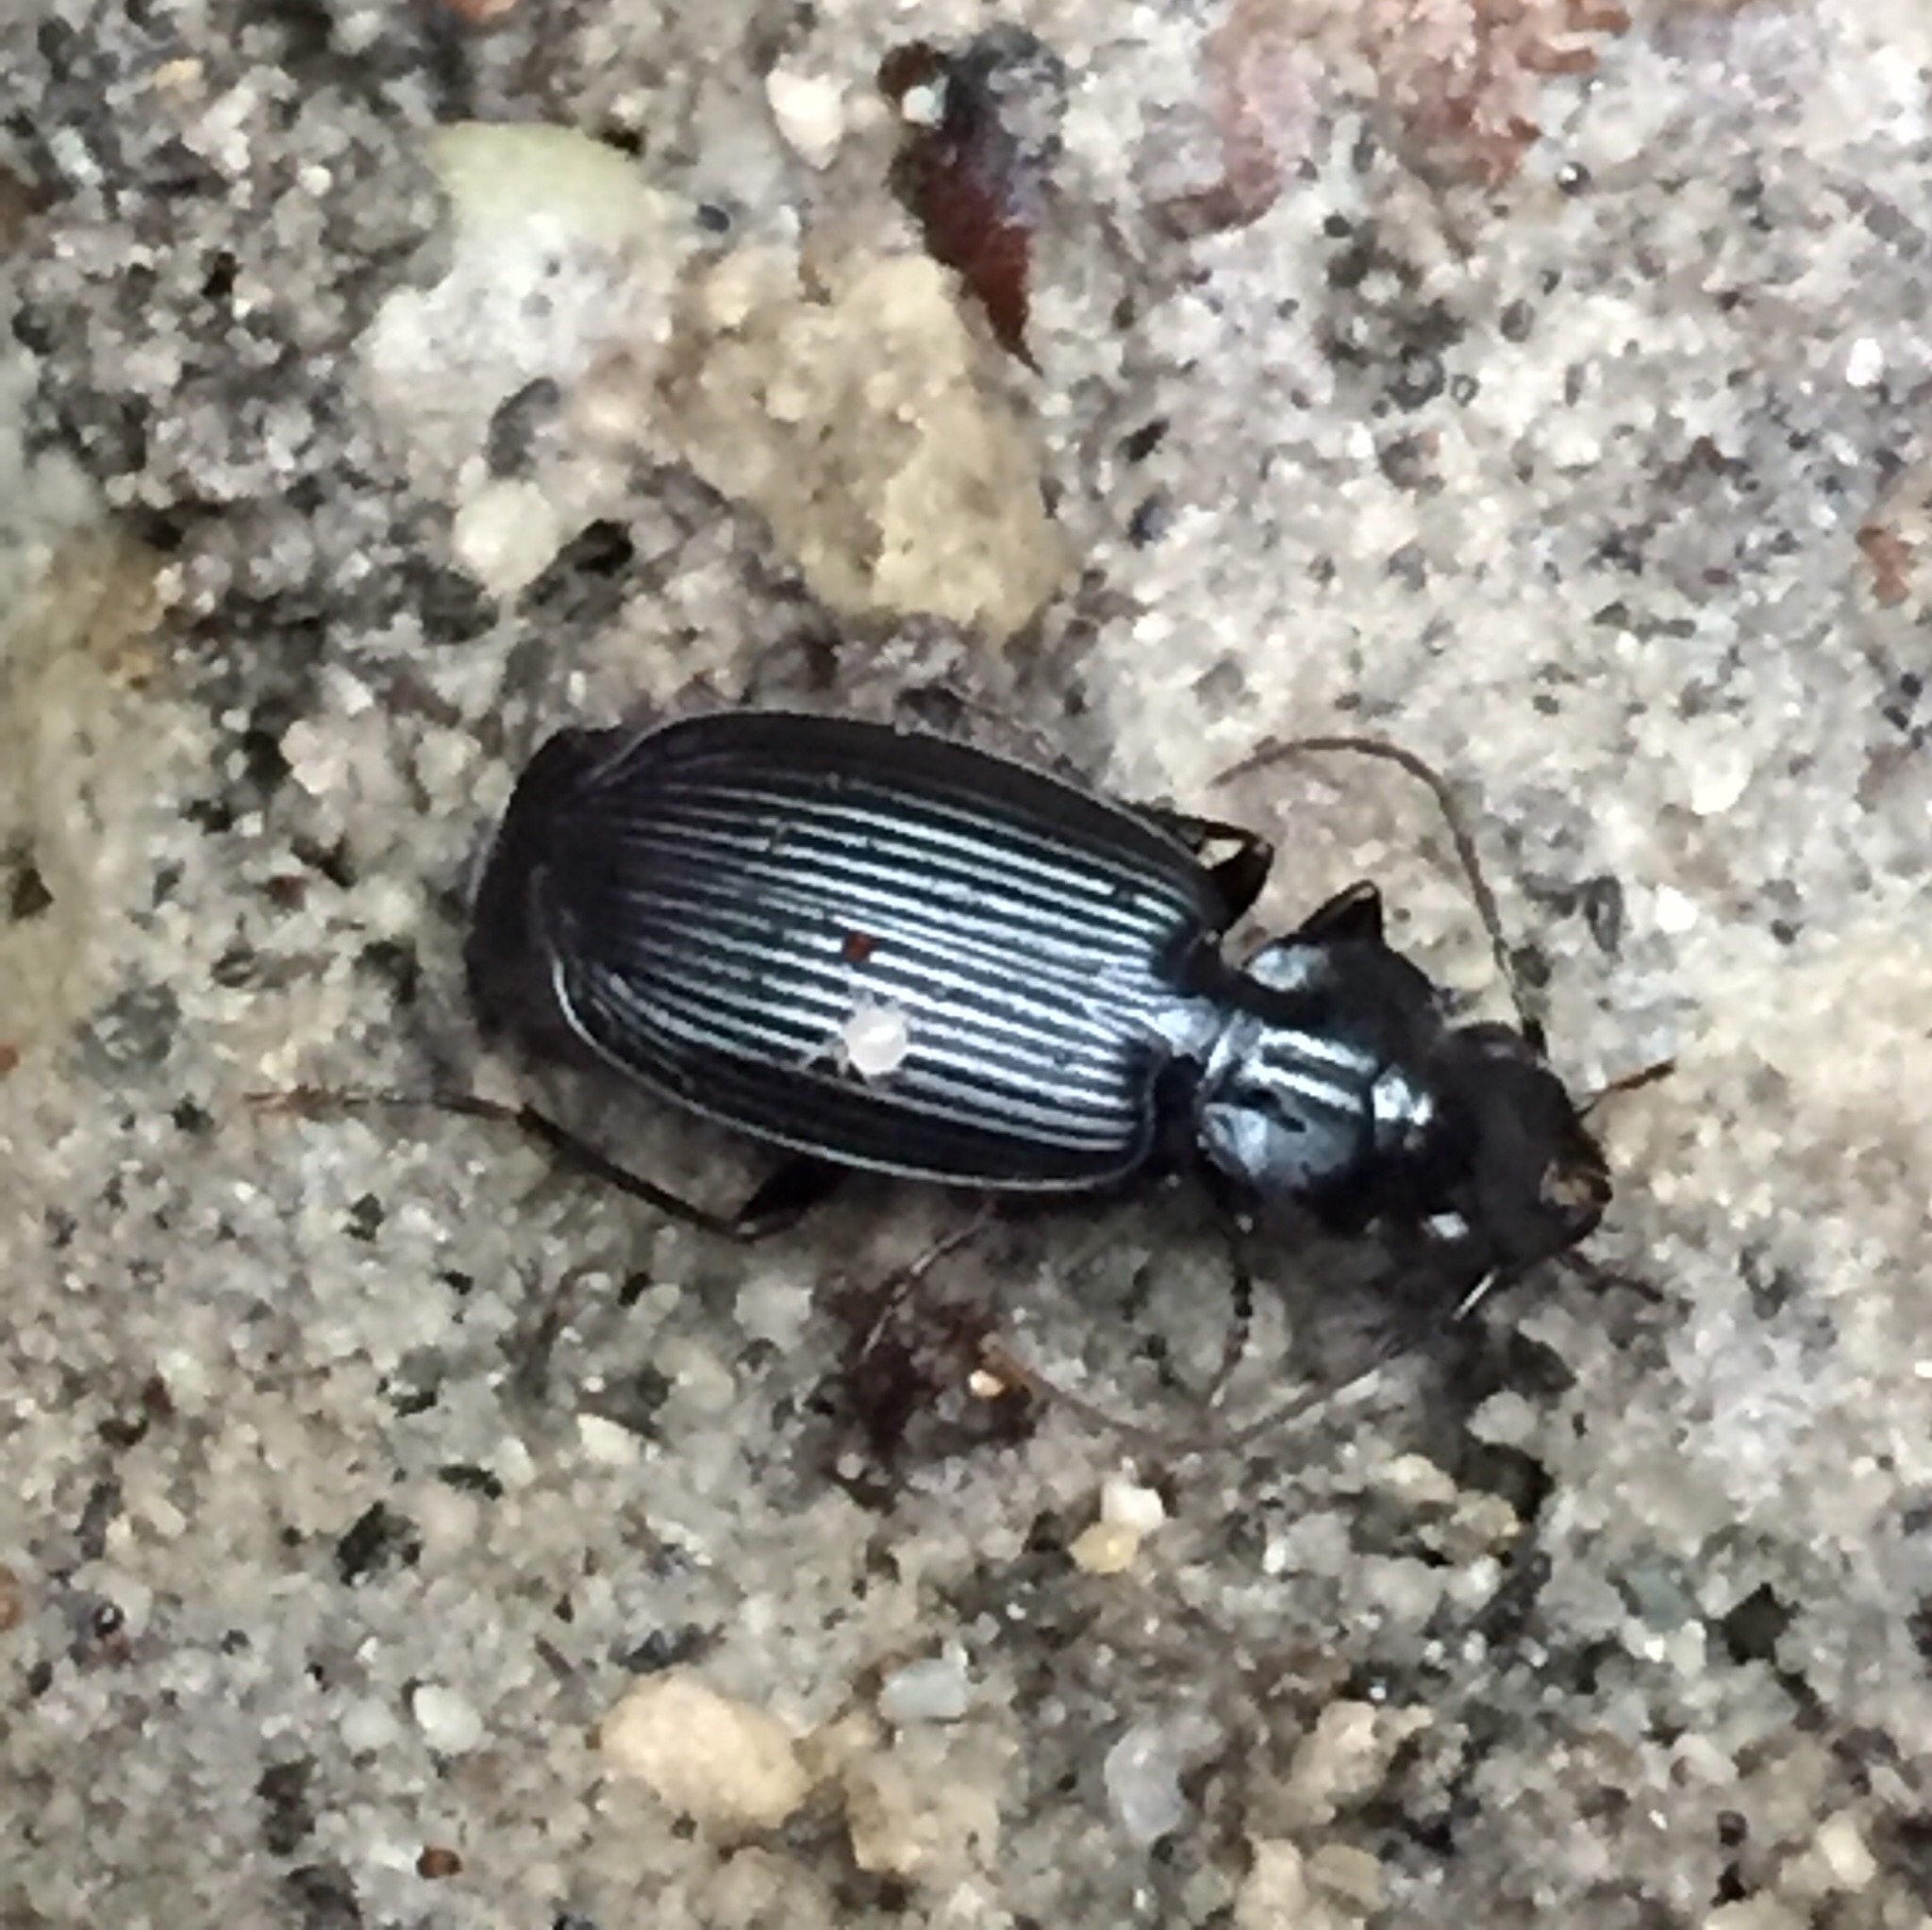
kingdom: Animalia
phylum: Arthropoda
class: Insecta
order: Coleoptera
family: Carabidae
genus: Dicrochile
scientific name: Dicrochile
